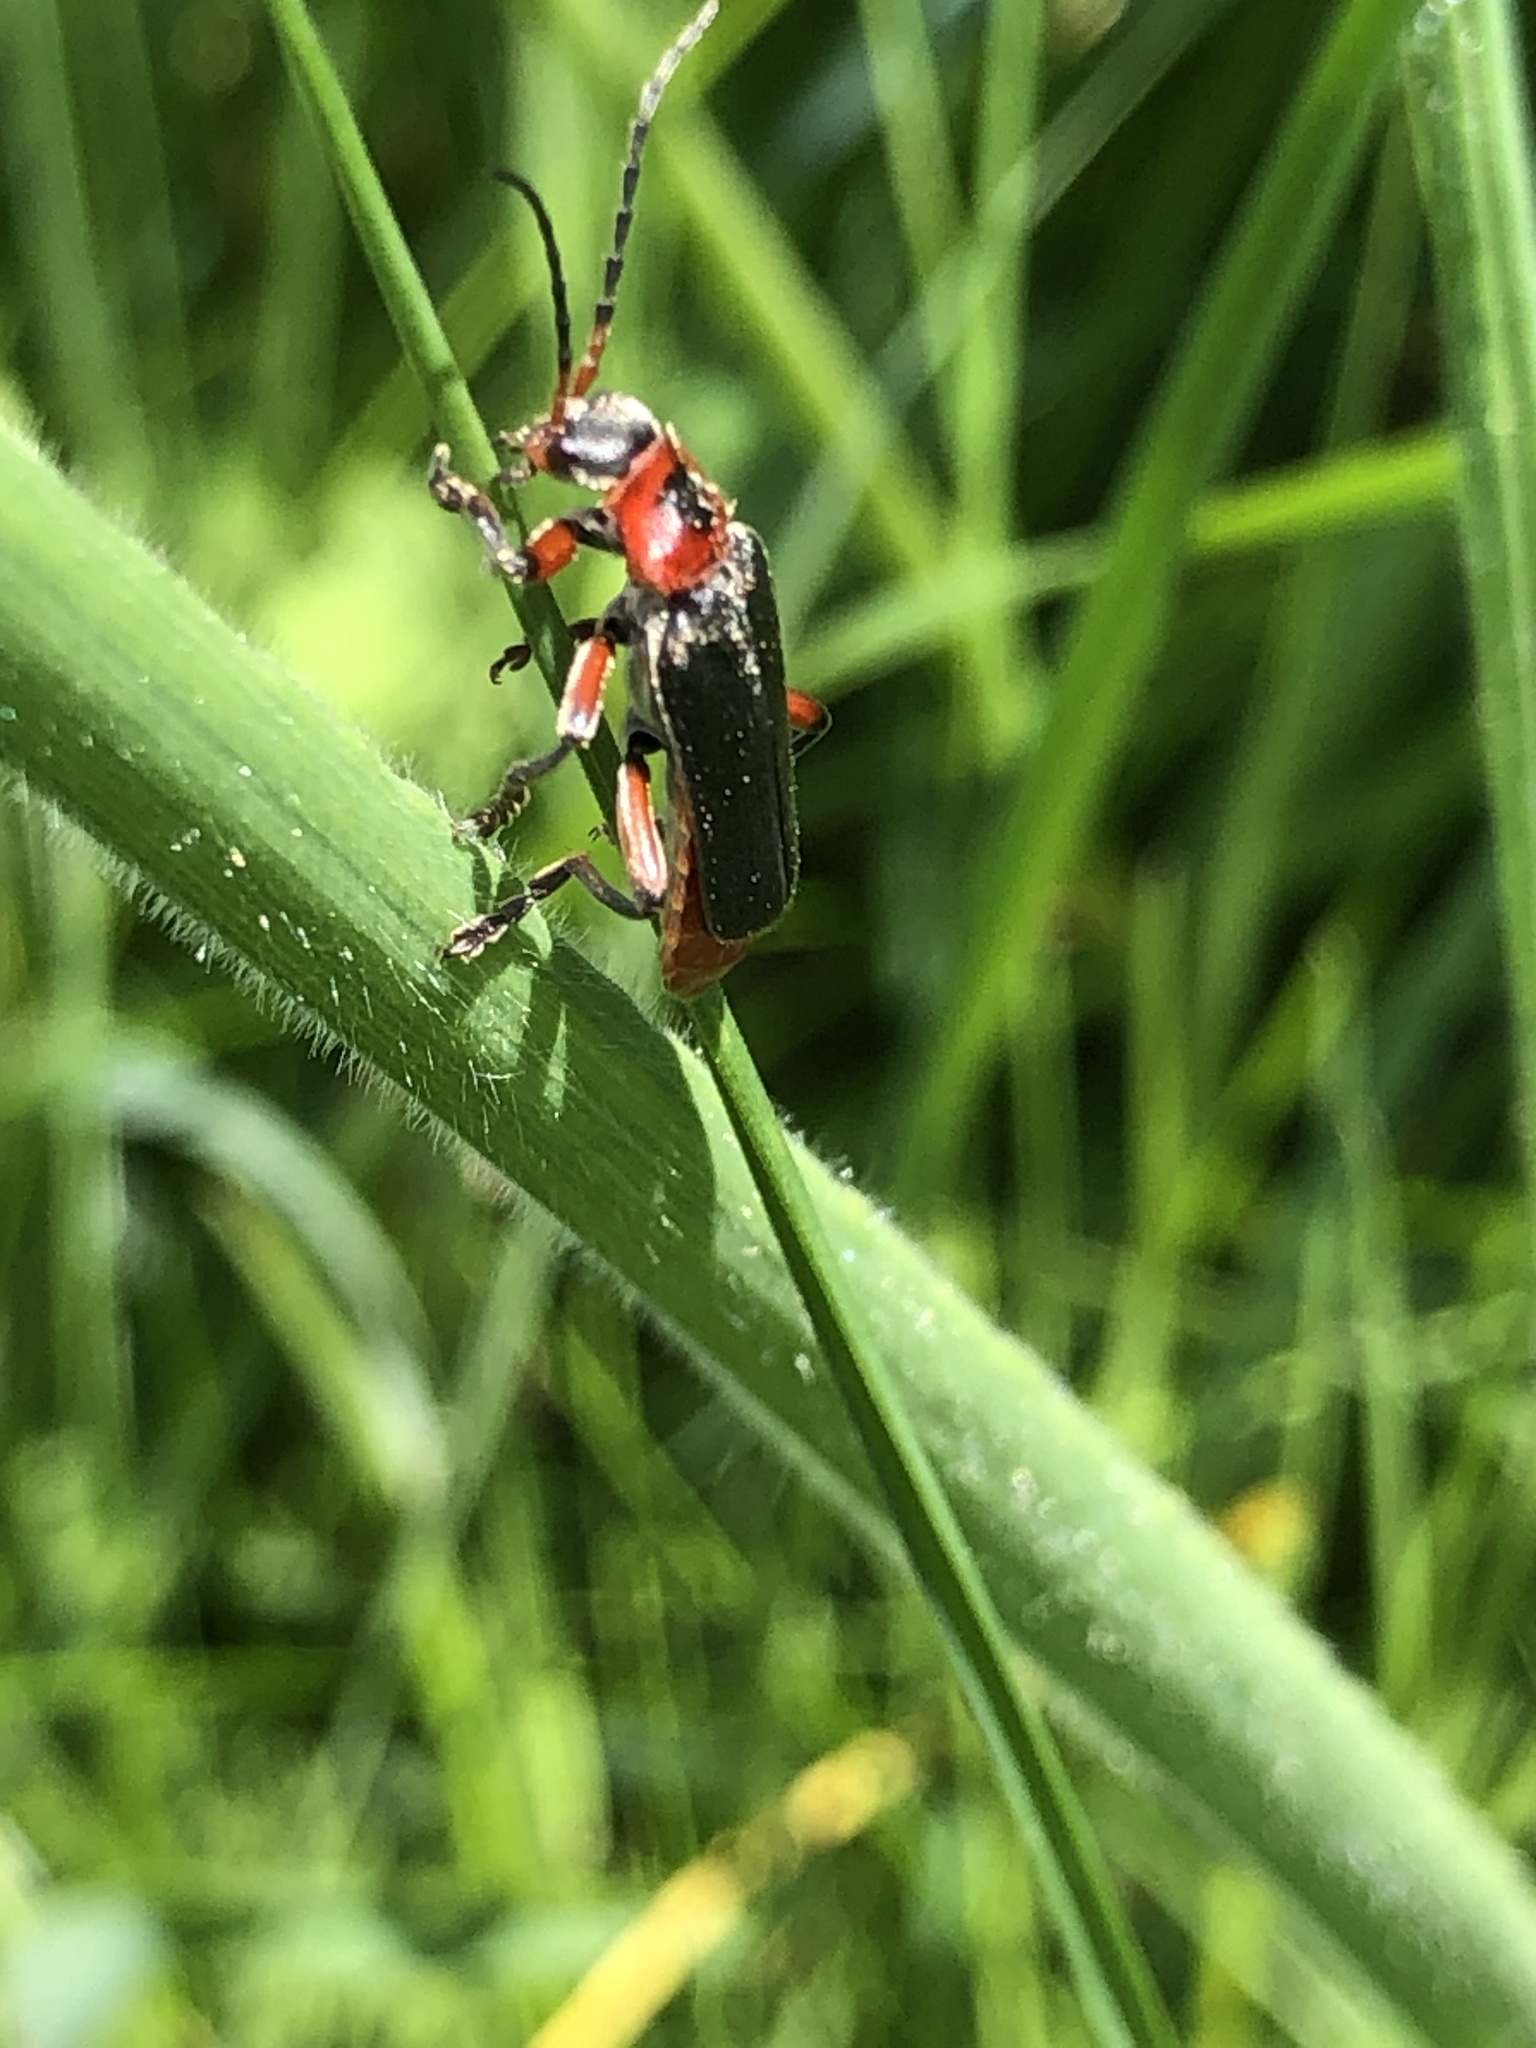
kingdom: Animalia
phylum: Arthropoda
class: Insecta
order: Coleoptera
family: Cantharidae
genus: Cantharis
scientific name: Cantharis rustica
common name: Soldier beetle
